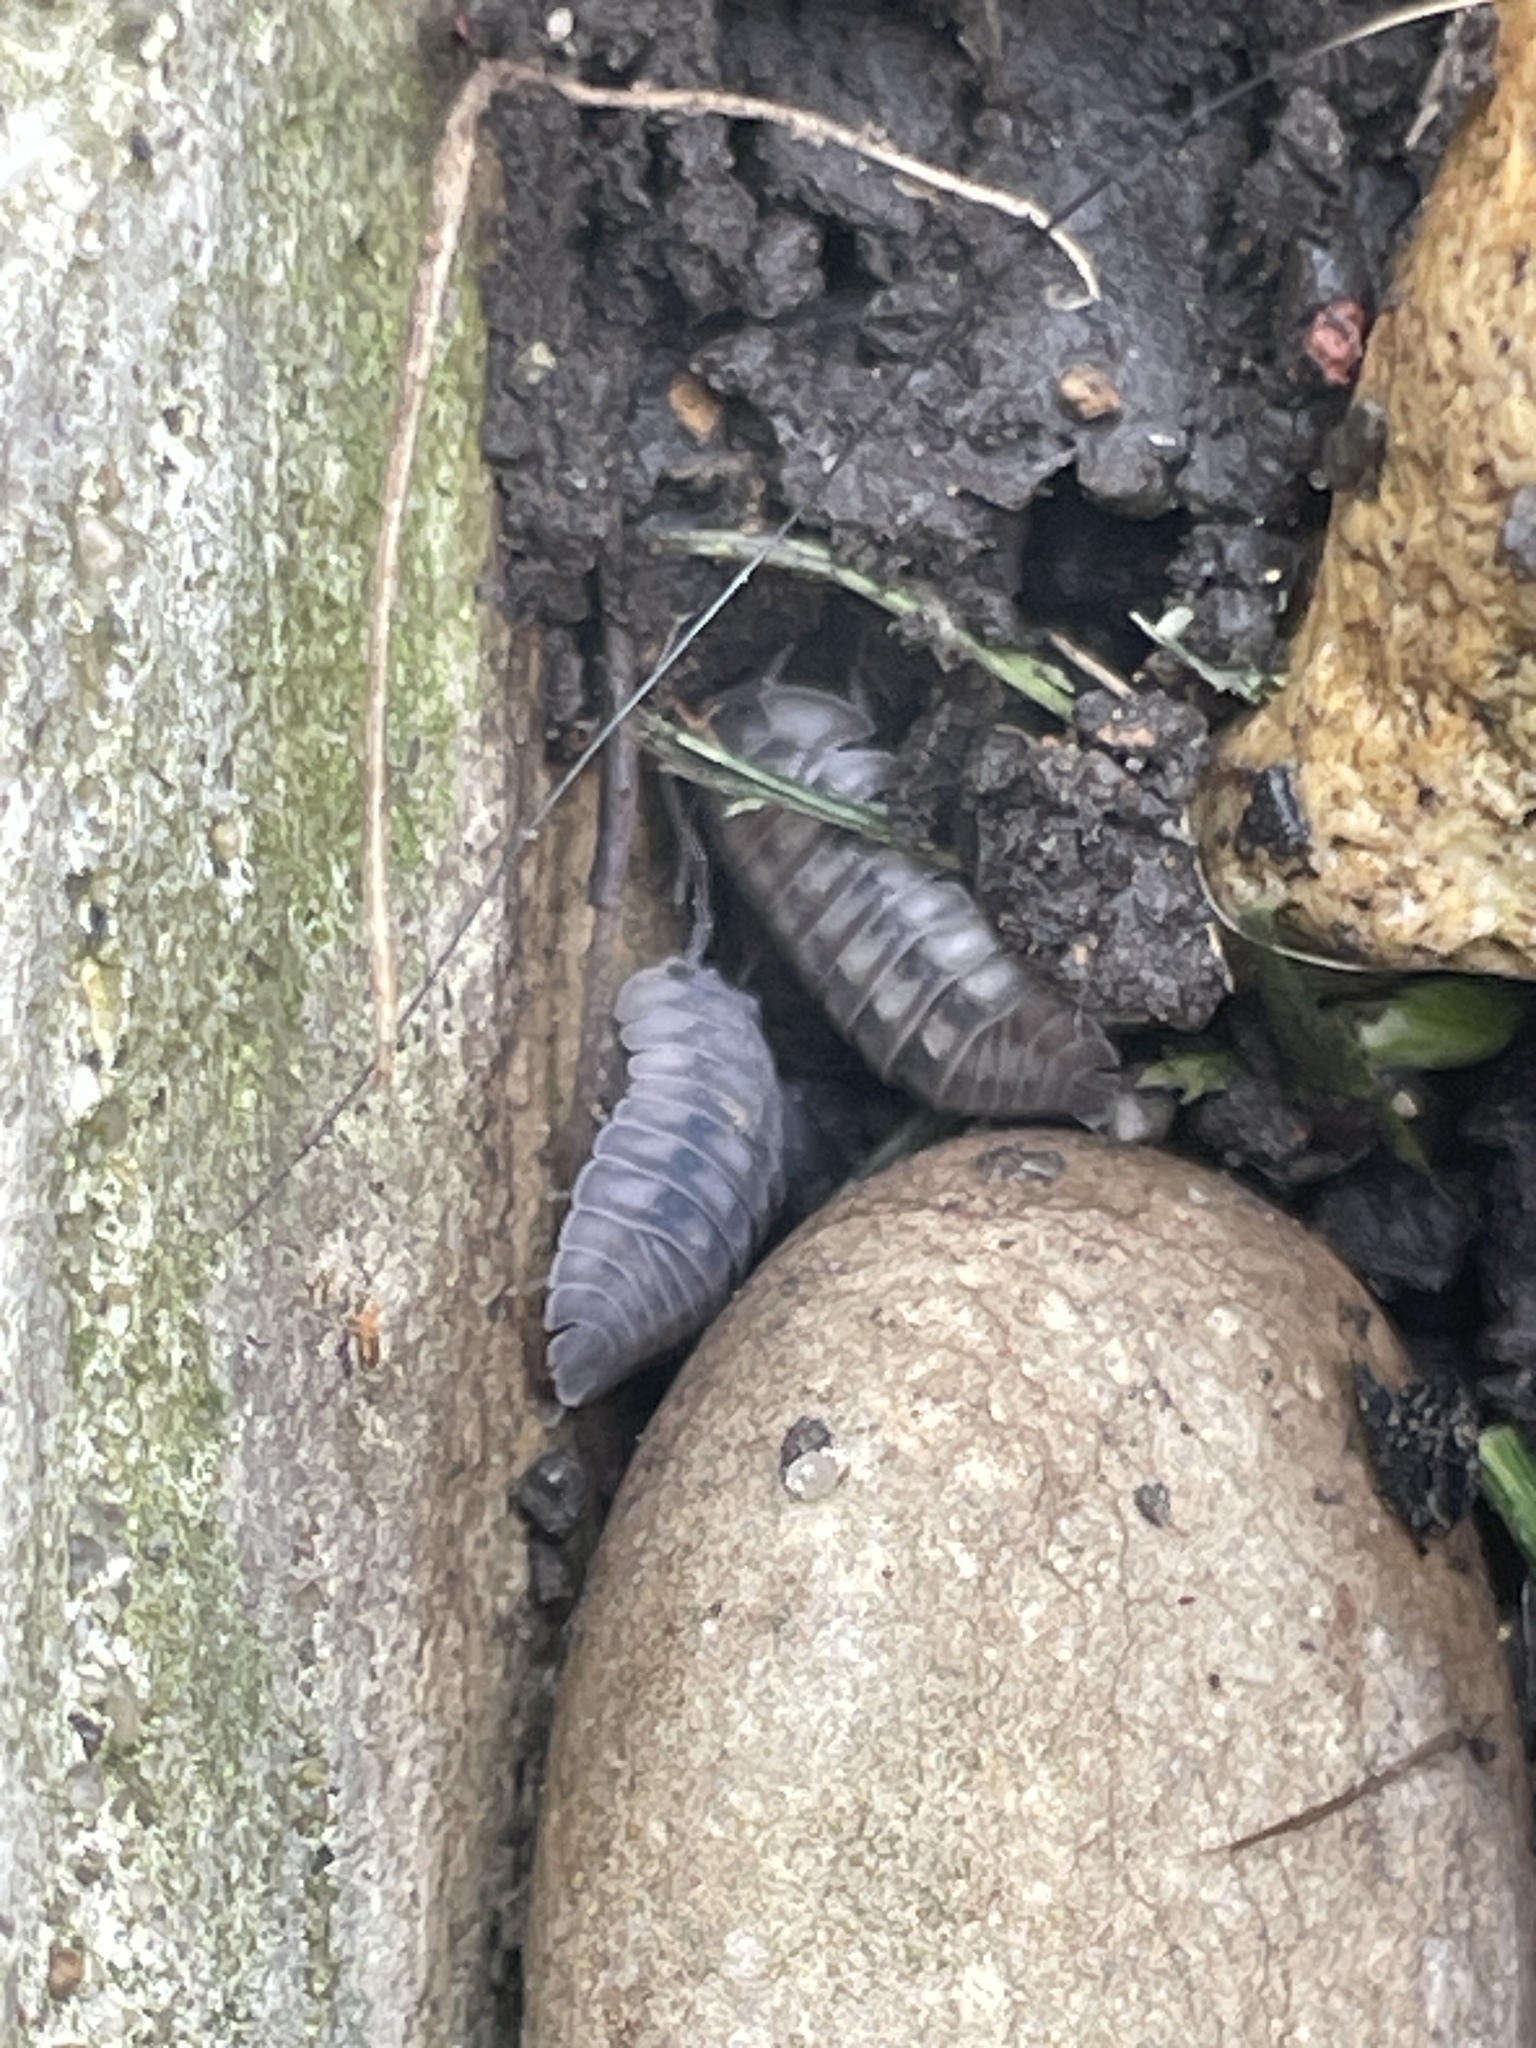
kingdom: Viruses
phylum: Nucleocytoviricota
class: Megaviricetes
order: Pimascovirales
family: Iridoviridae
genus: Iridovirus
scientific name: Iridovirus Invertebrate iridescent virus 31
